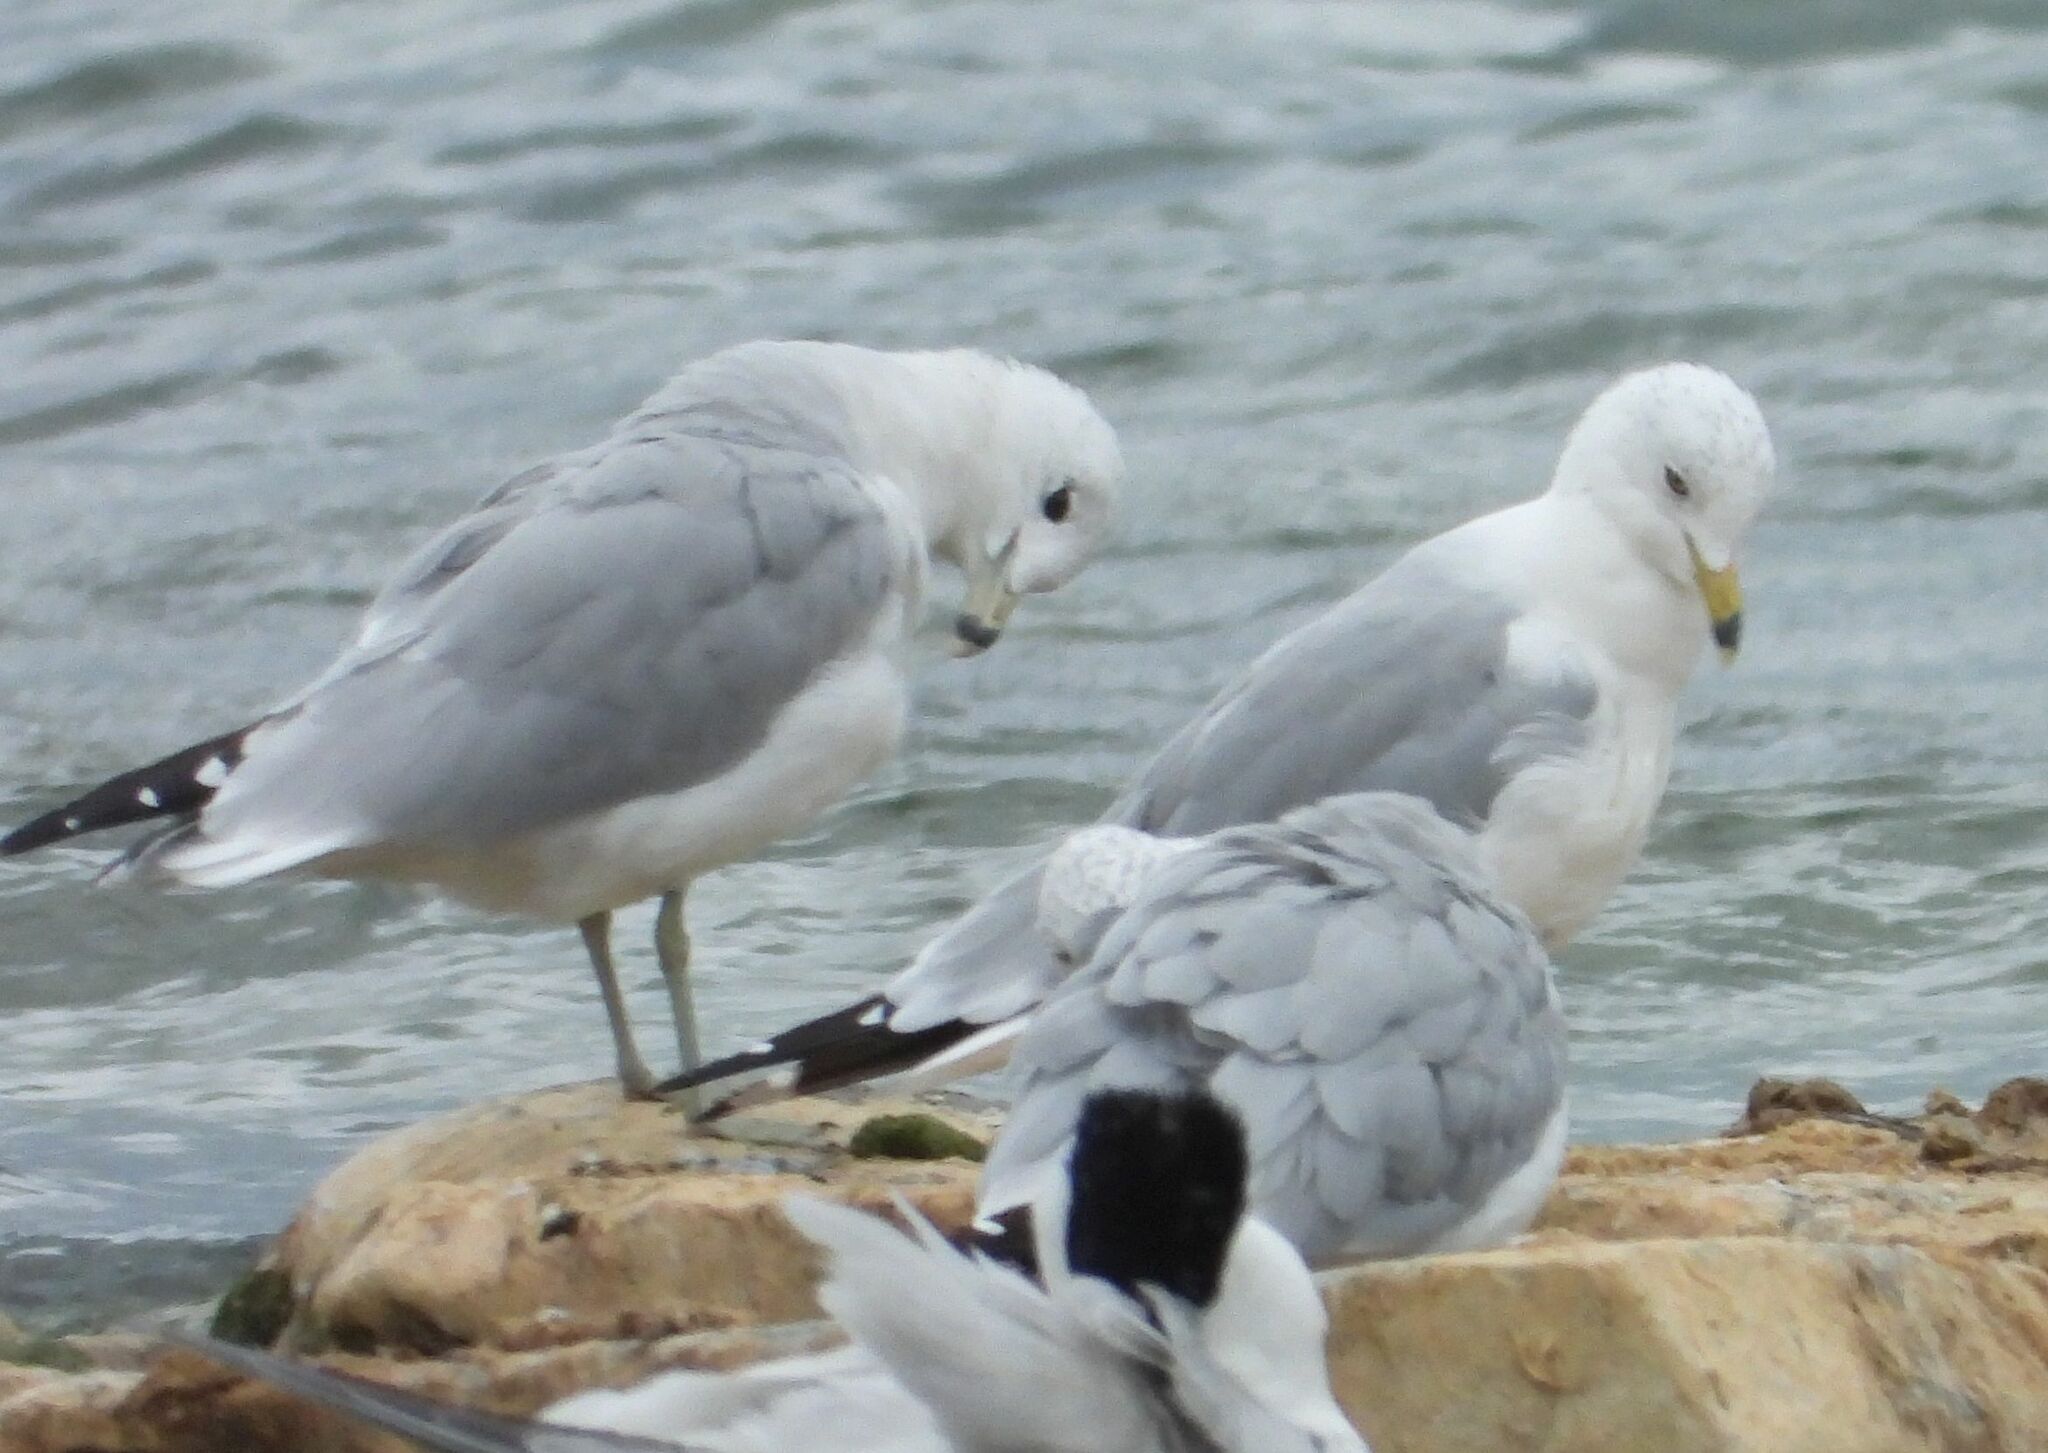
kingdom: Animalia
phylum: Chordata
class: Aves
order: Charadriiformes
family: Laridae
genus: Larus
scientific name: Larus delawarensis
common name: Ring-billed gull
